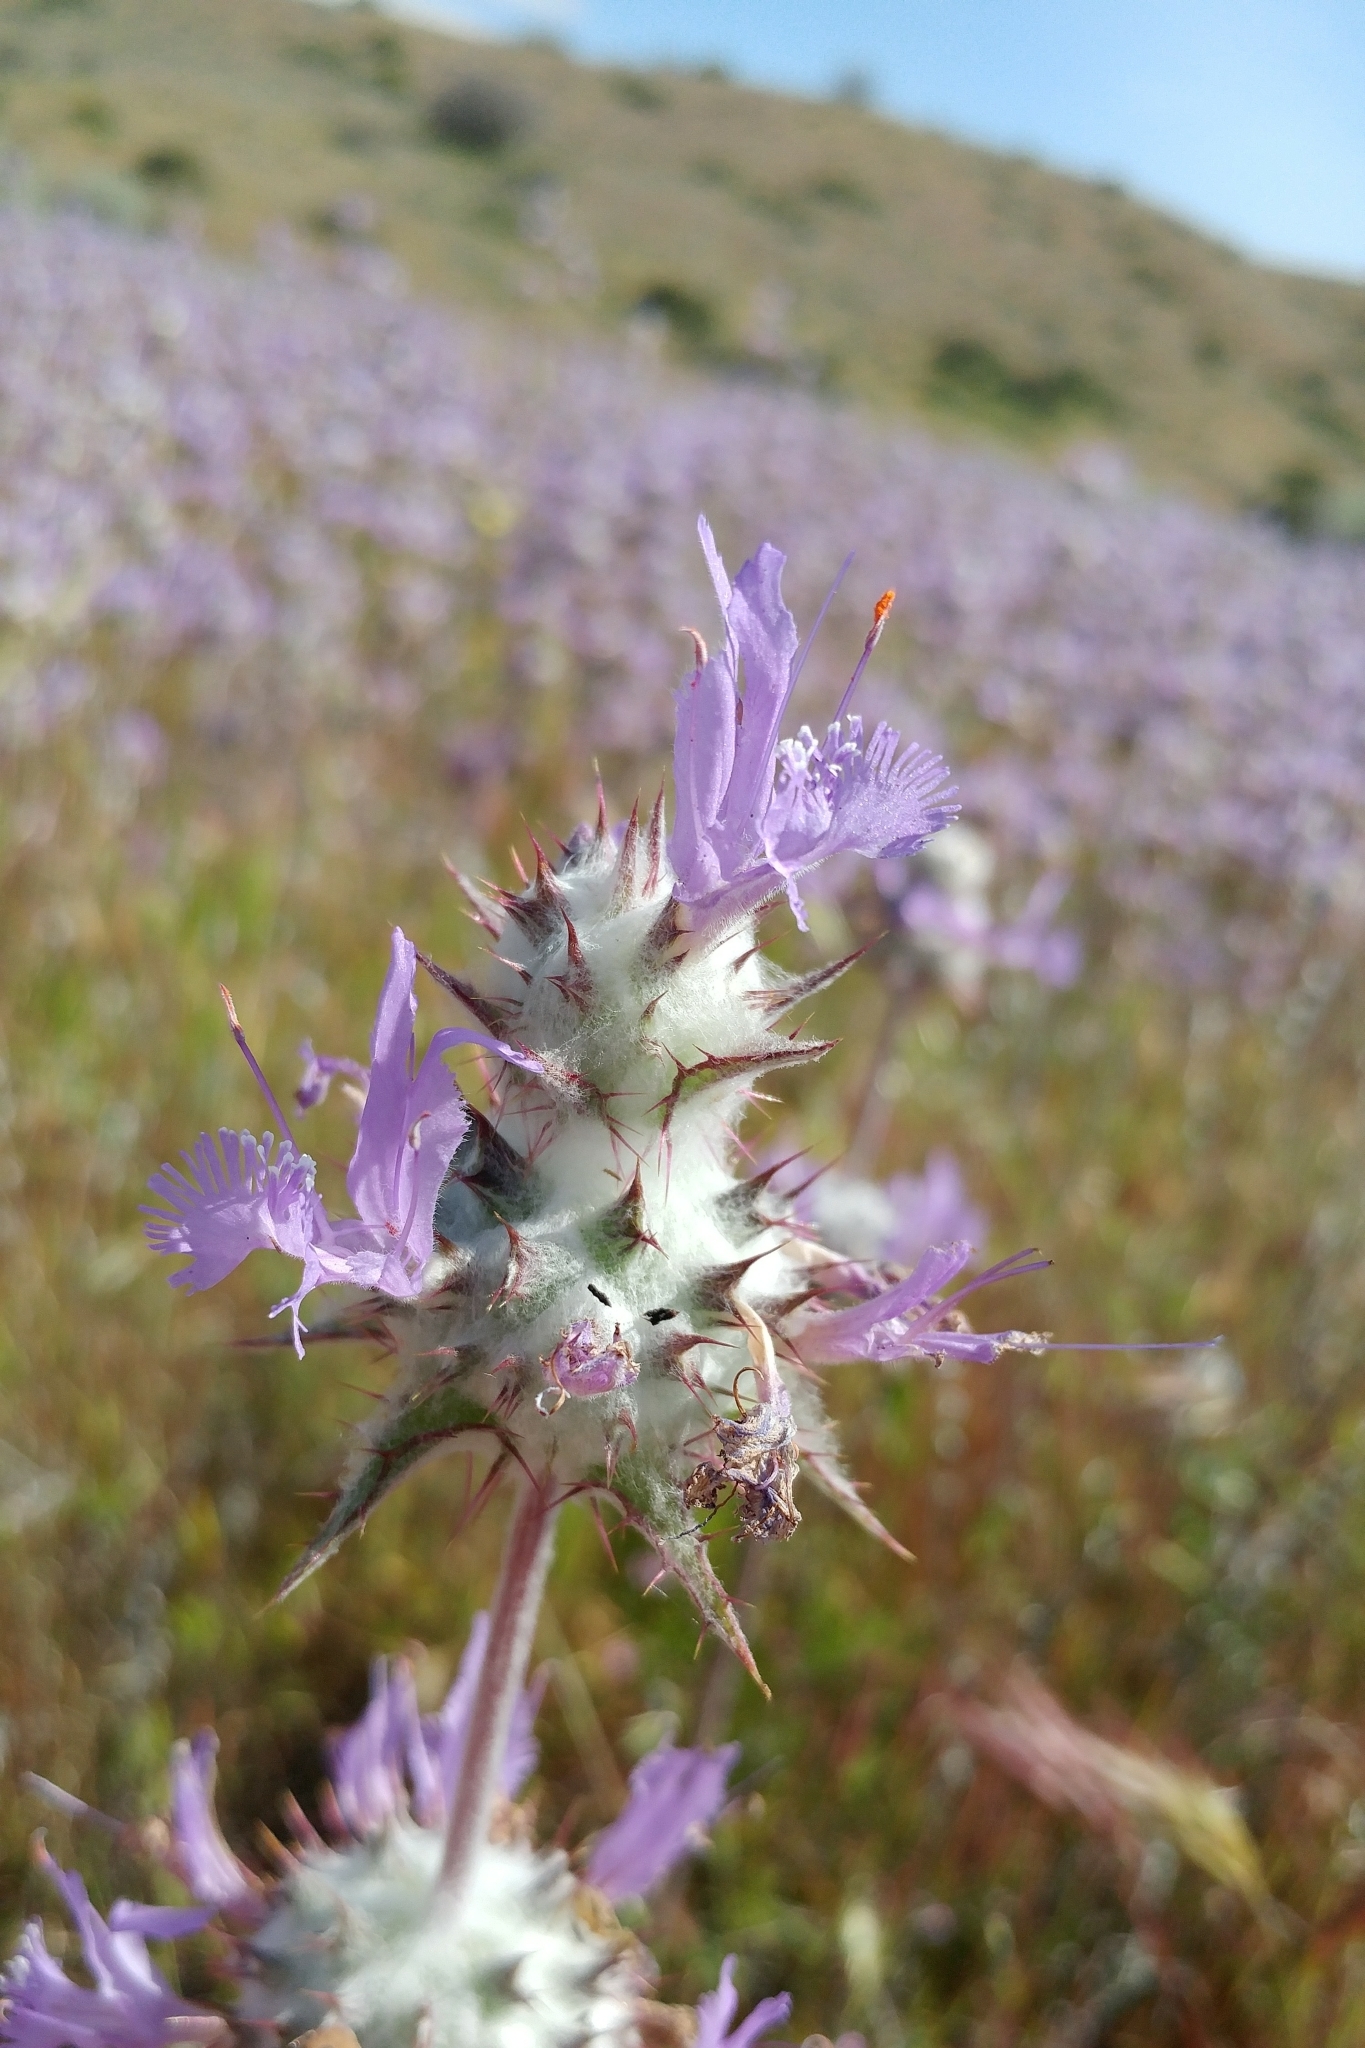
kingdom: Plantae
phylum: Tracheophyta
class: Magnoliopsida
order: Lamiales
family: Lamiaceae
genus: Salvia
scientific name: Salvia carduacea
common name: Thistle sage
